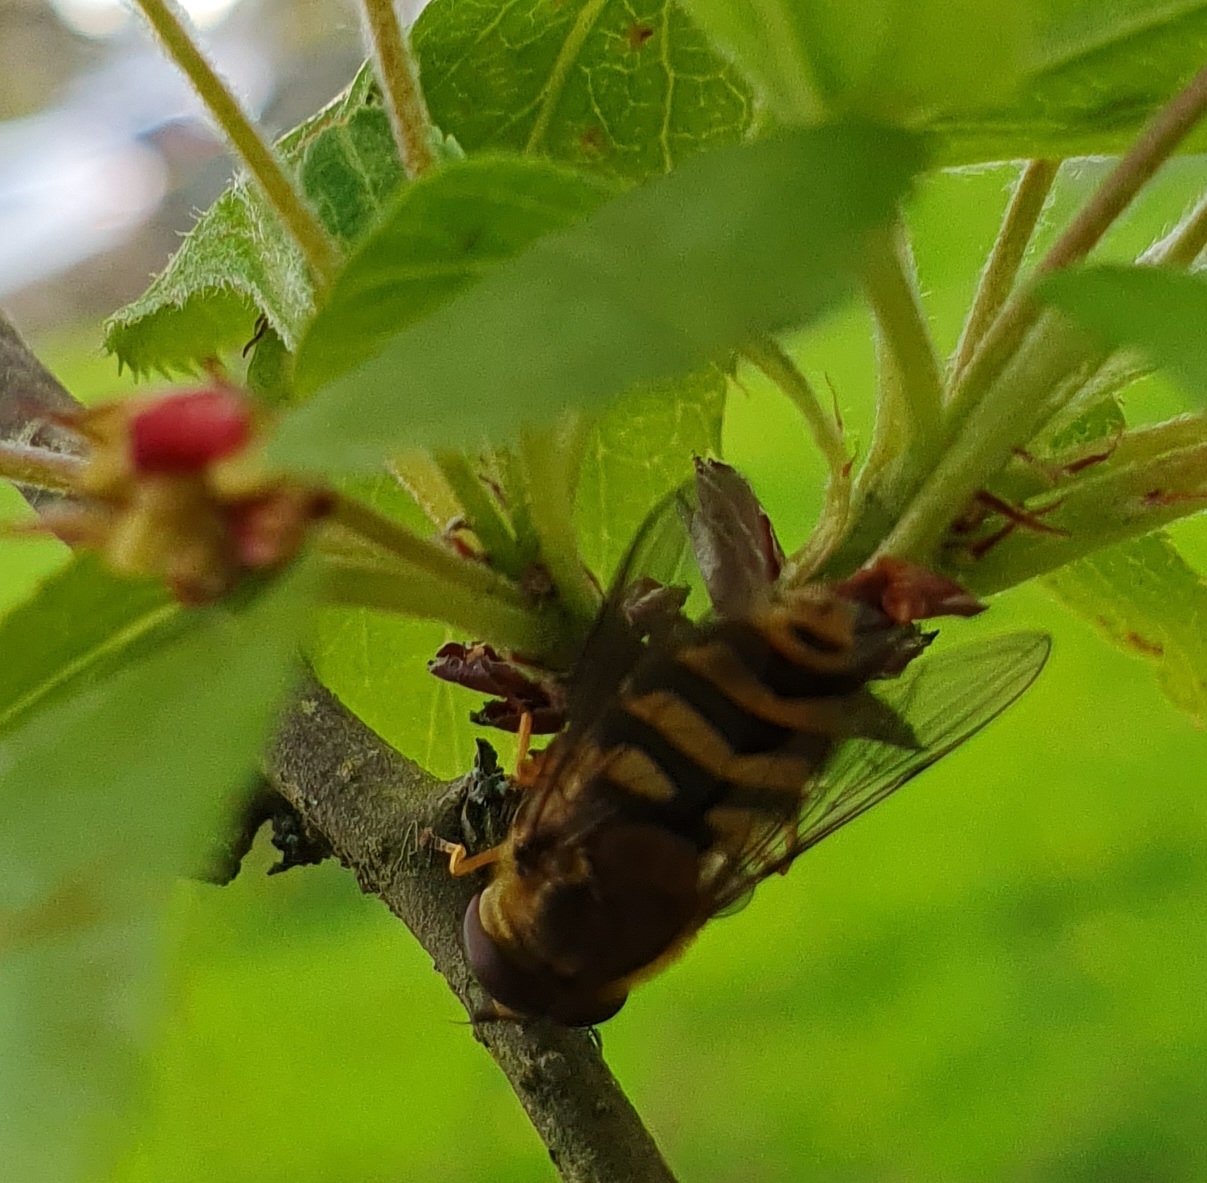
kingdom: Animalia
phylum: Arthropoda
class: Insecta
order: Diptera
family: Syrphidae
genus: Syrphus
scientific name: Syrphus
